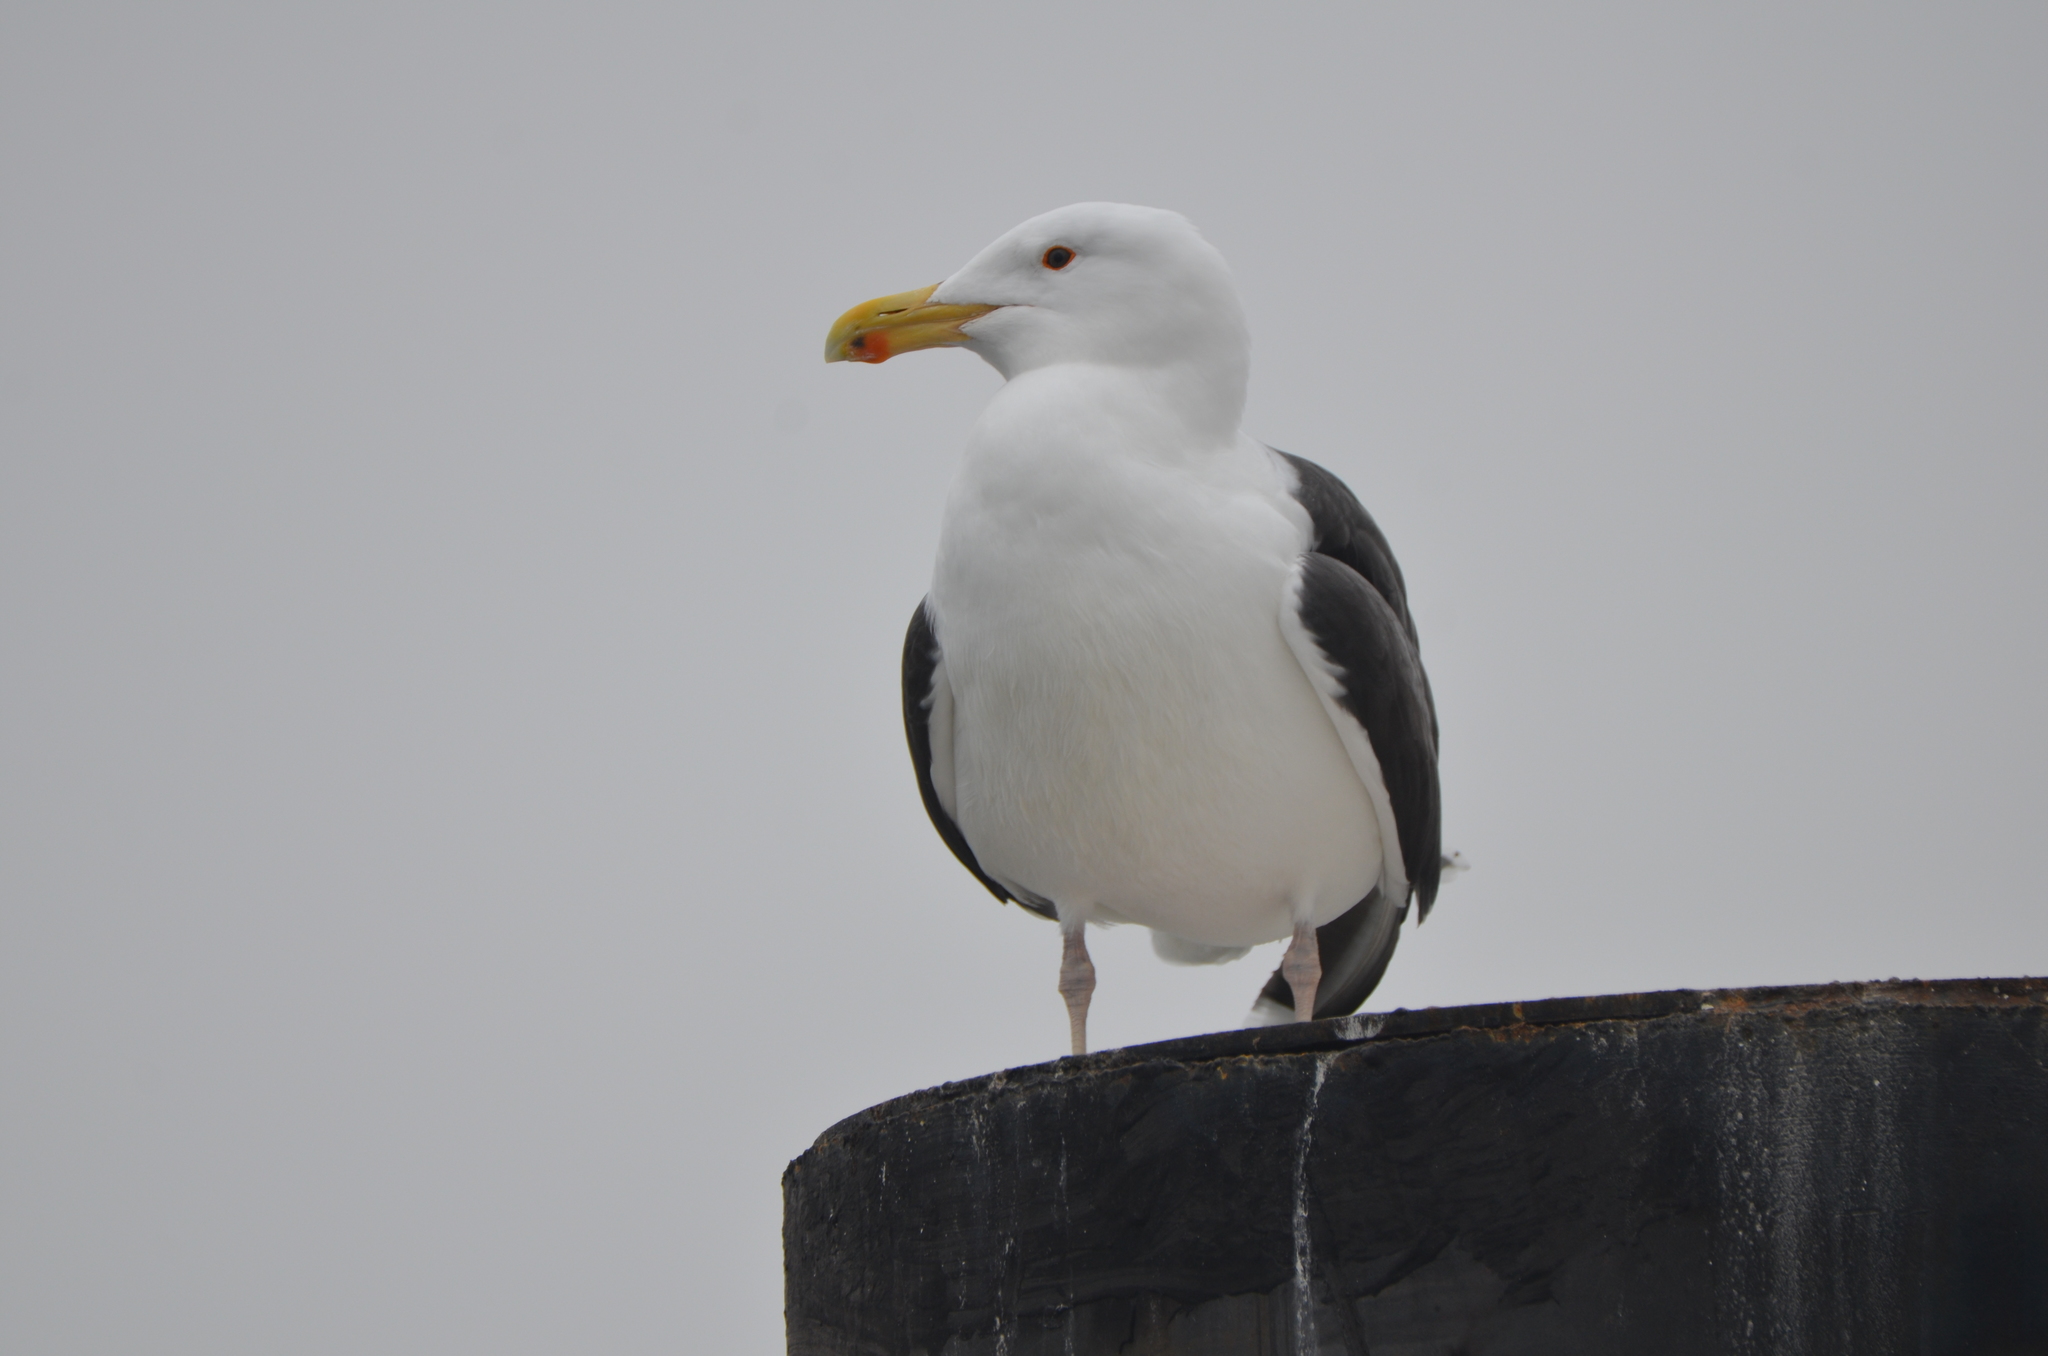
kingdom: Animalia
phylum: Chordata
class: Aves
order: Charadriiformes
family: Laridae
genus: Larus
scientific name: Larus marinus
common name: Great black-backed gull
